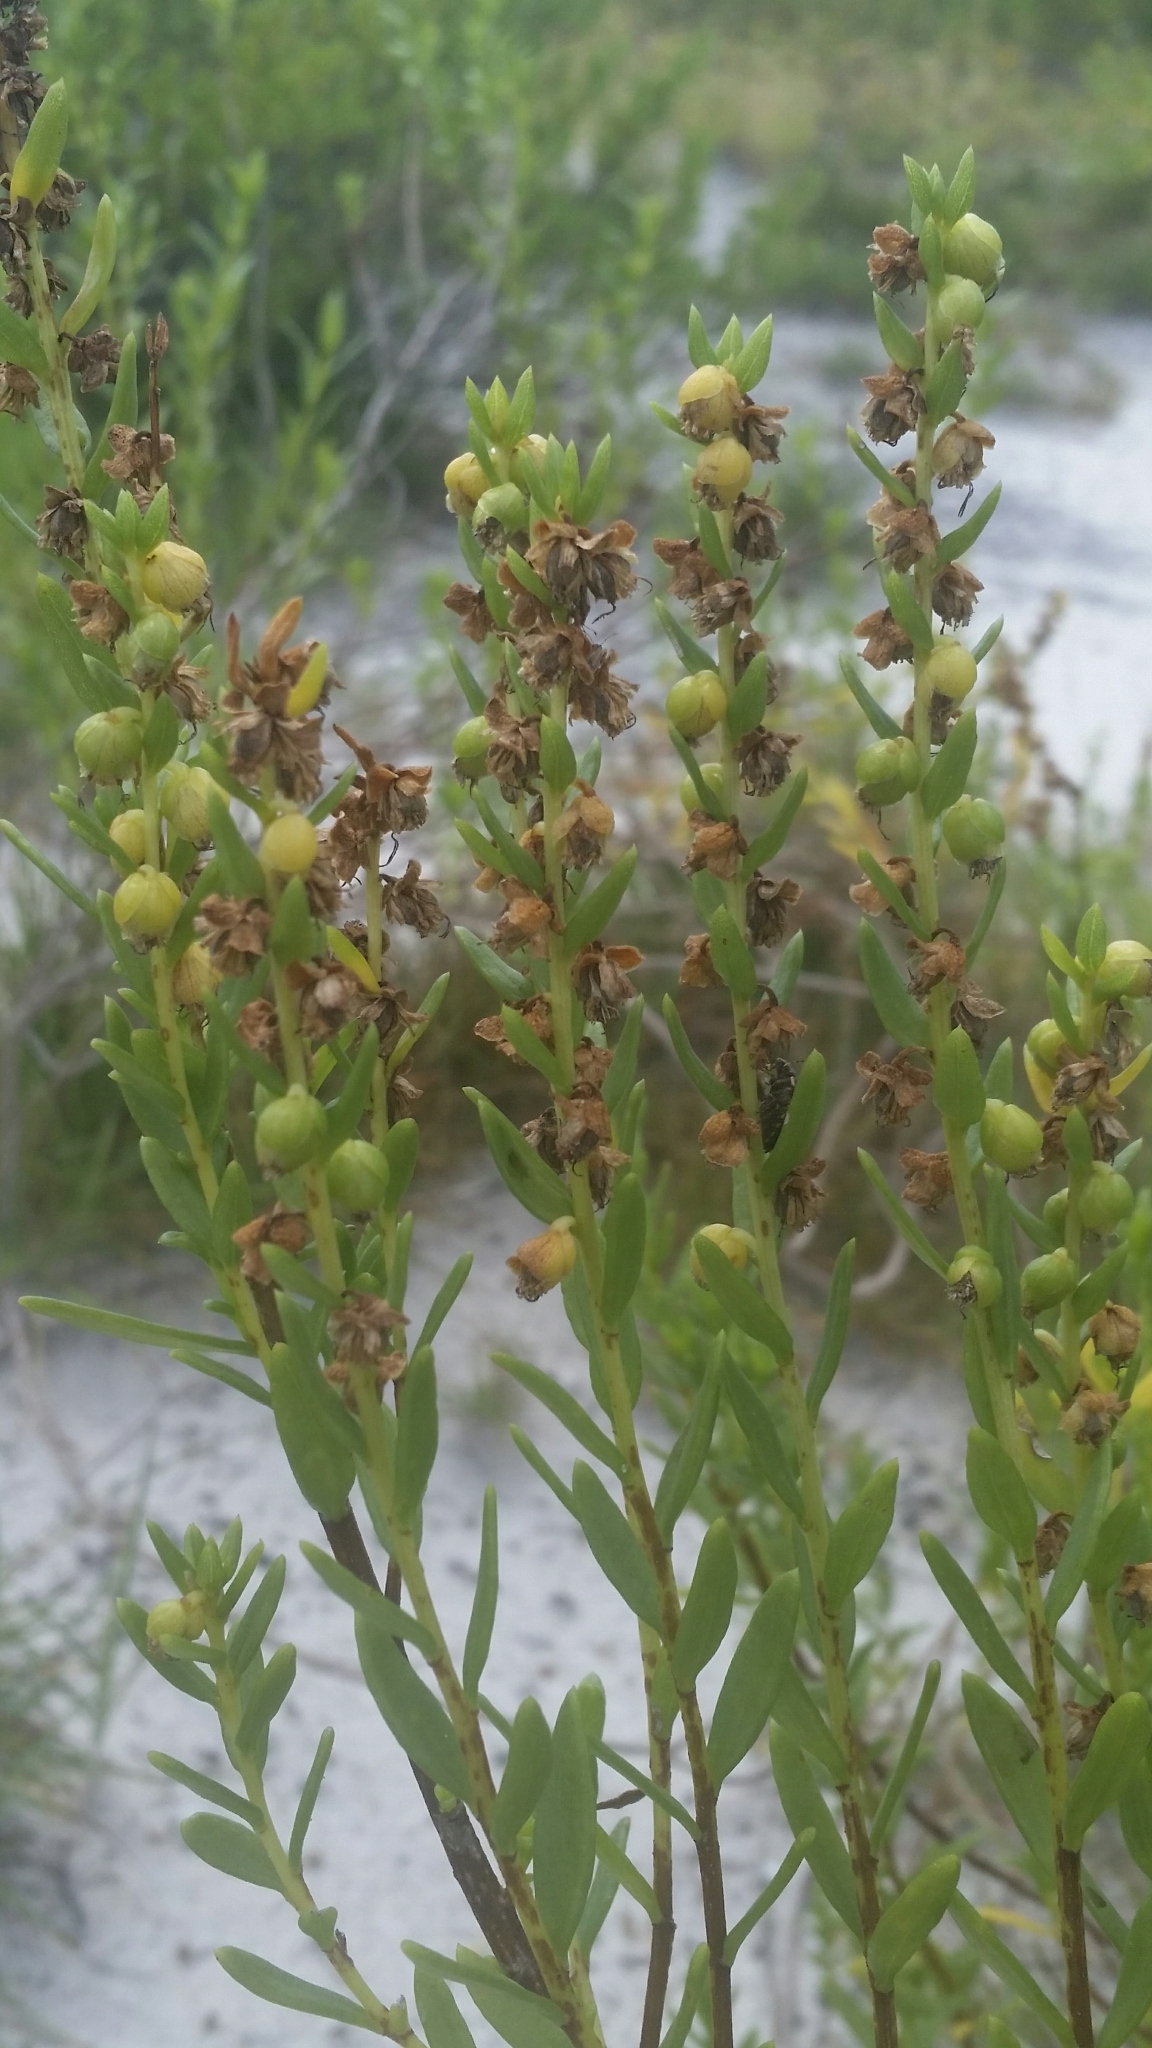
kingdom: Plantae
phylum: Tracheophyta
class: Magnoliopsida
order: Asterales
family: Asteraceae
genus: Iva
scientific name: Iva imbricata
